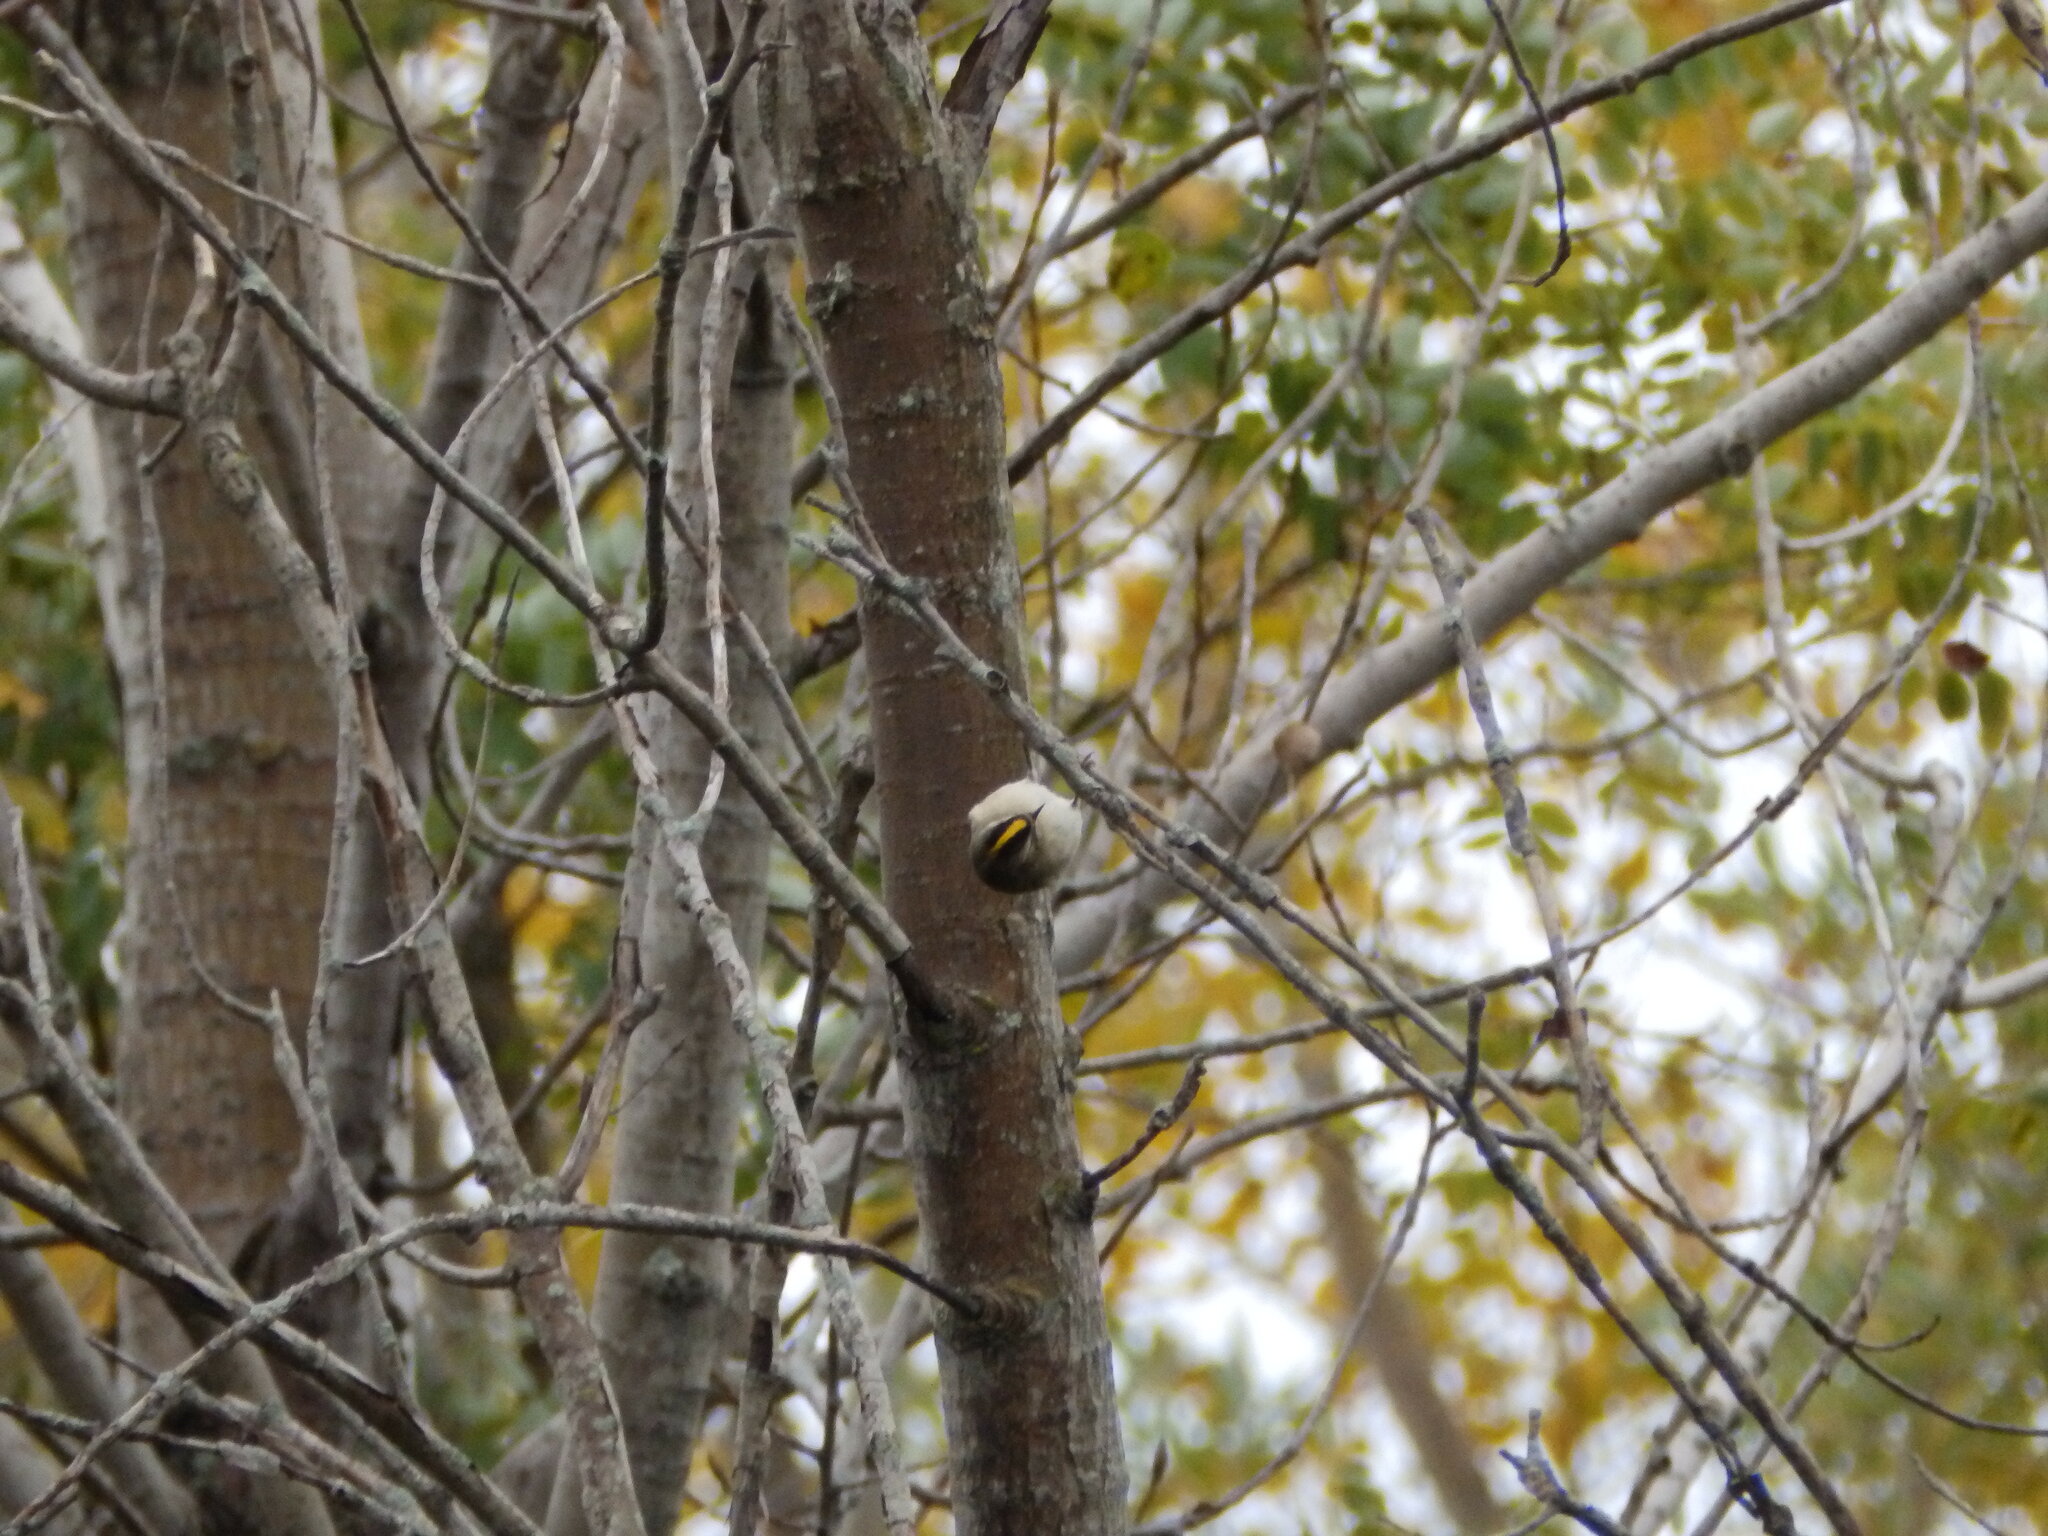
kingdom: Animalia
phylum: Chordata
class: Aves
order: Passeriformes
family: Regulidae
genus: Regulus
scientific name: Regulus satrapa
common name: Golden-crowned kinglet
